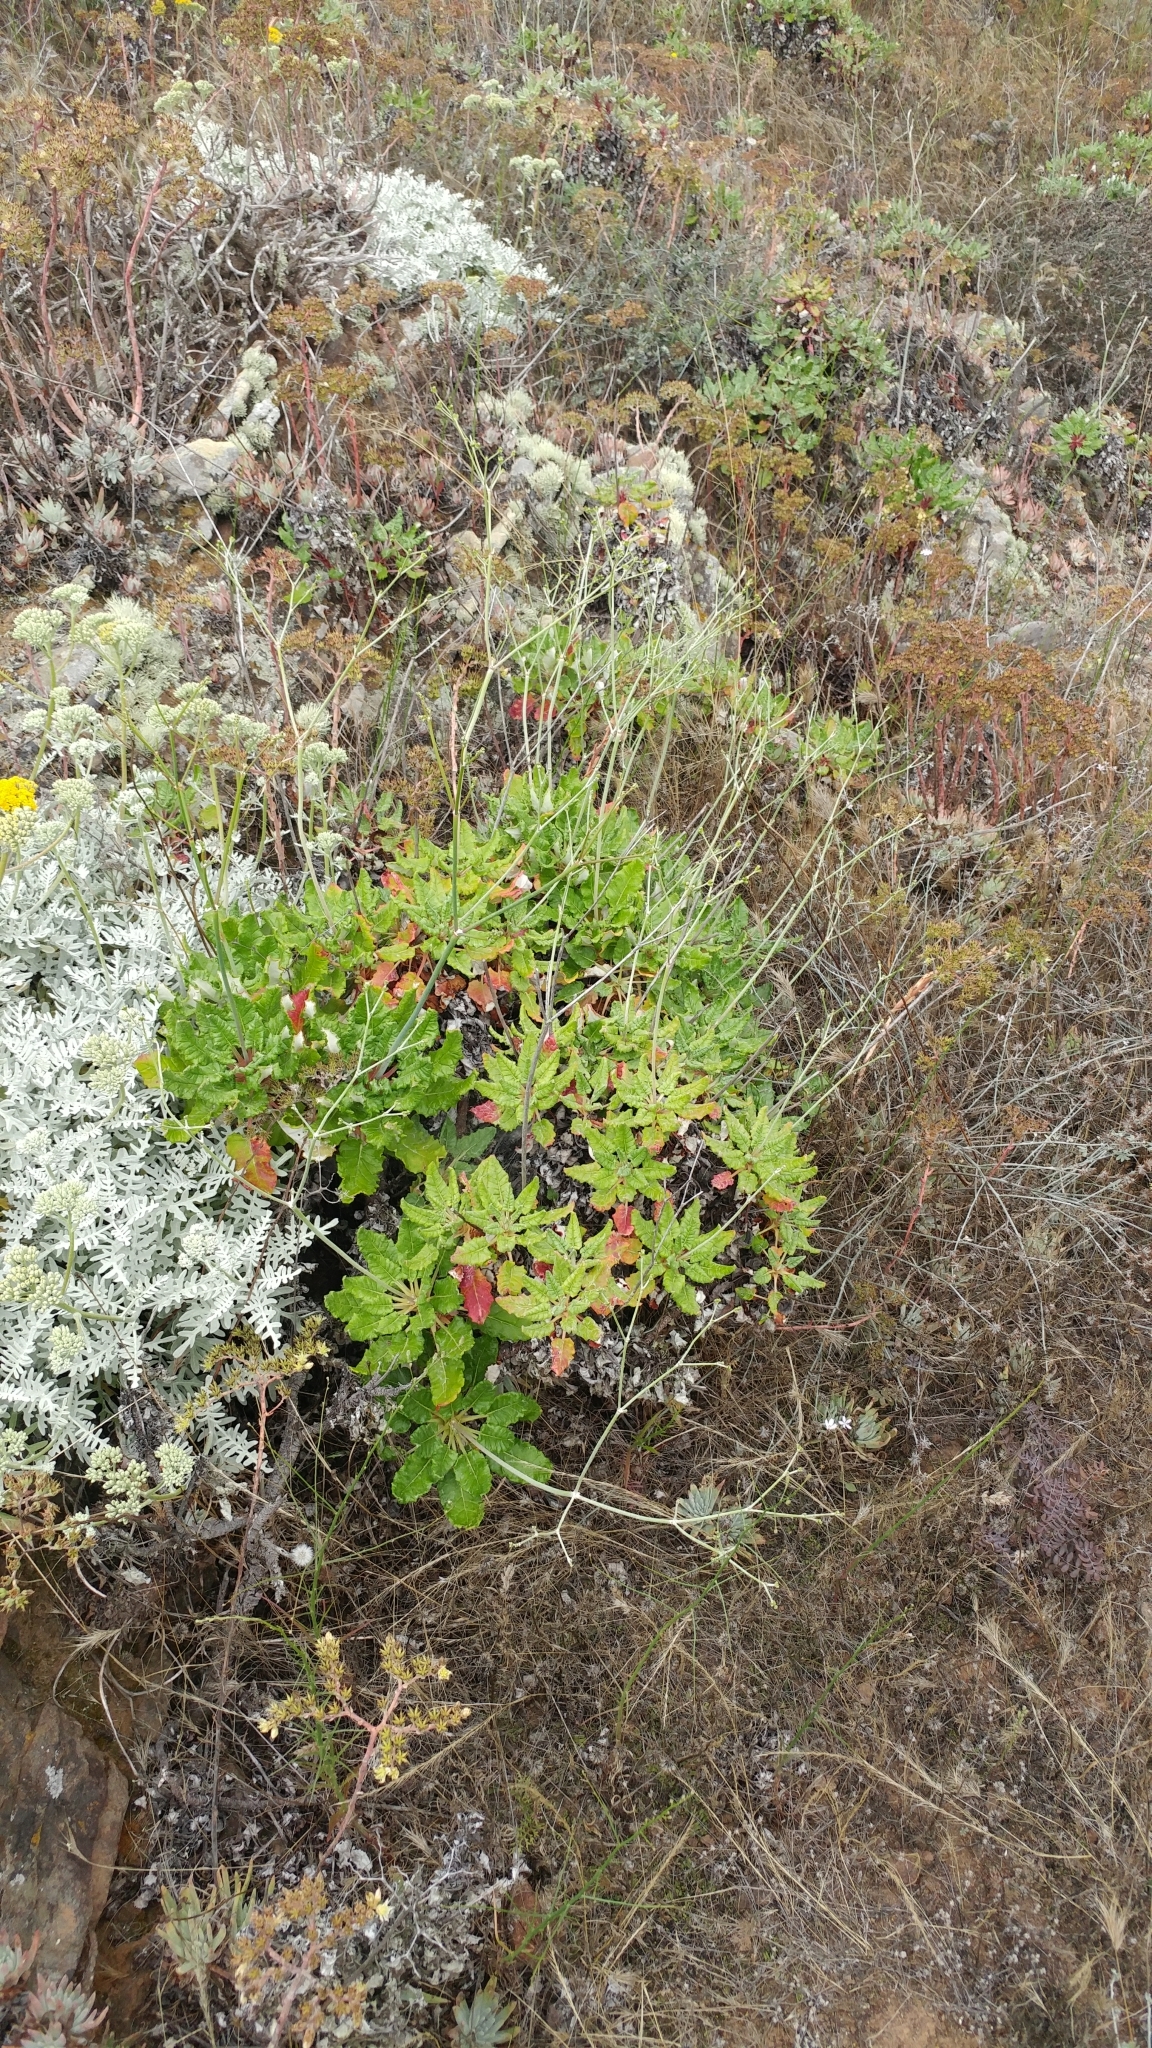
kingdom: Plantae
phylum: Tracheophyta
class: Magnoliopsida
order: Caryophyllales
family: Polygonaceae
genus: Eriogonum
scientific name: Eriogonum grande
